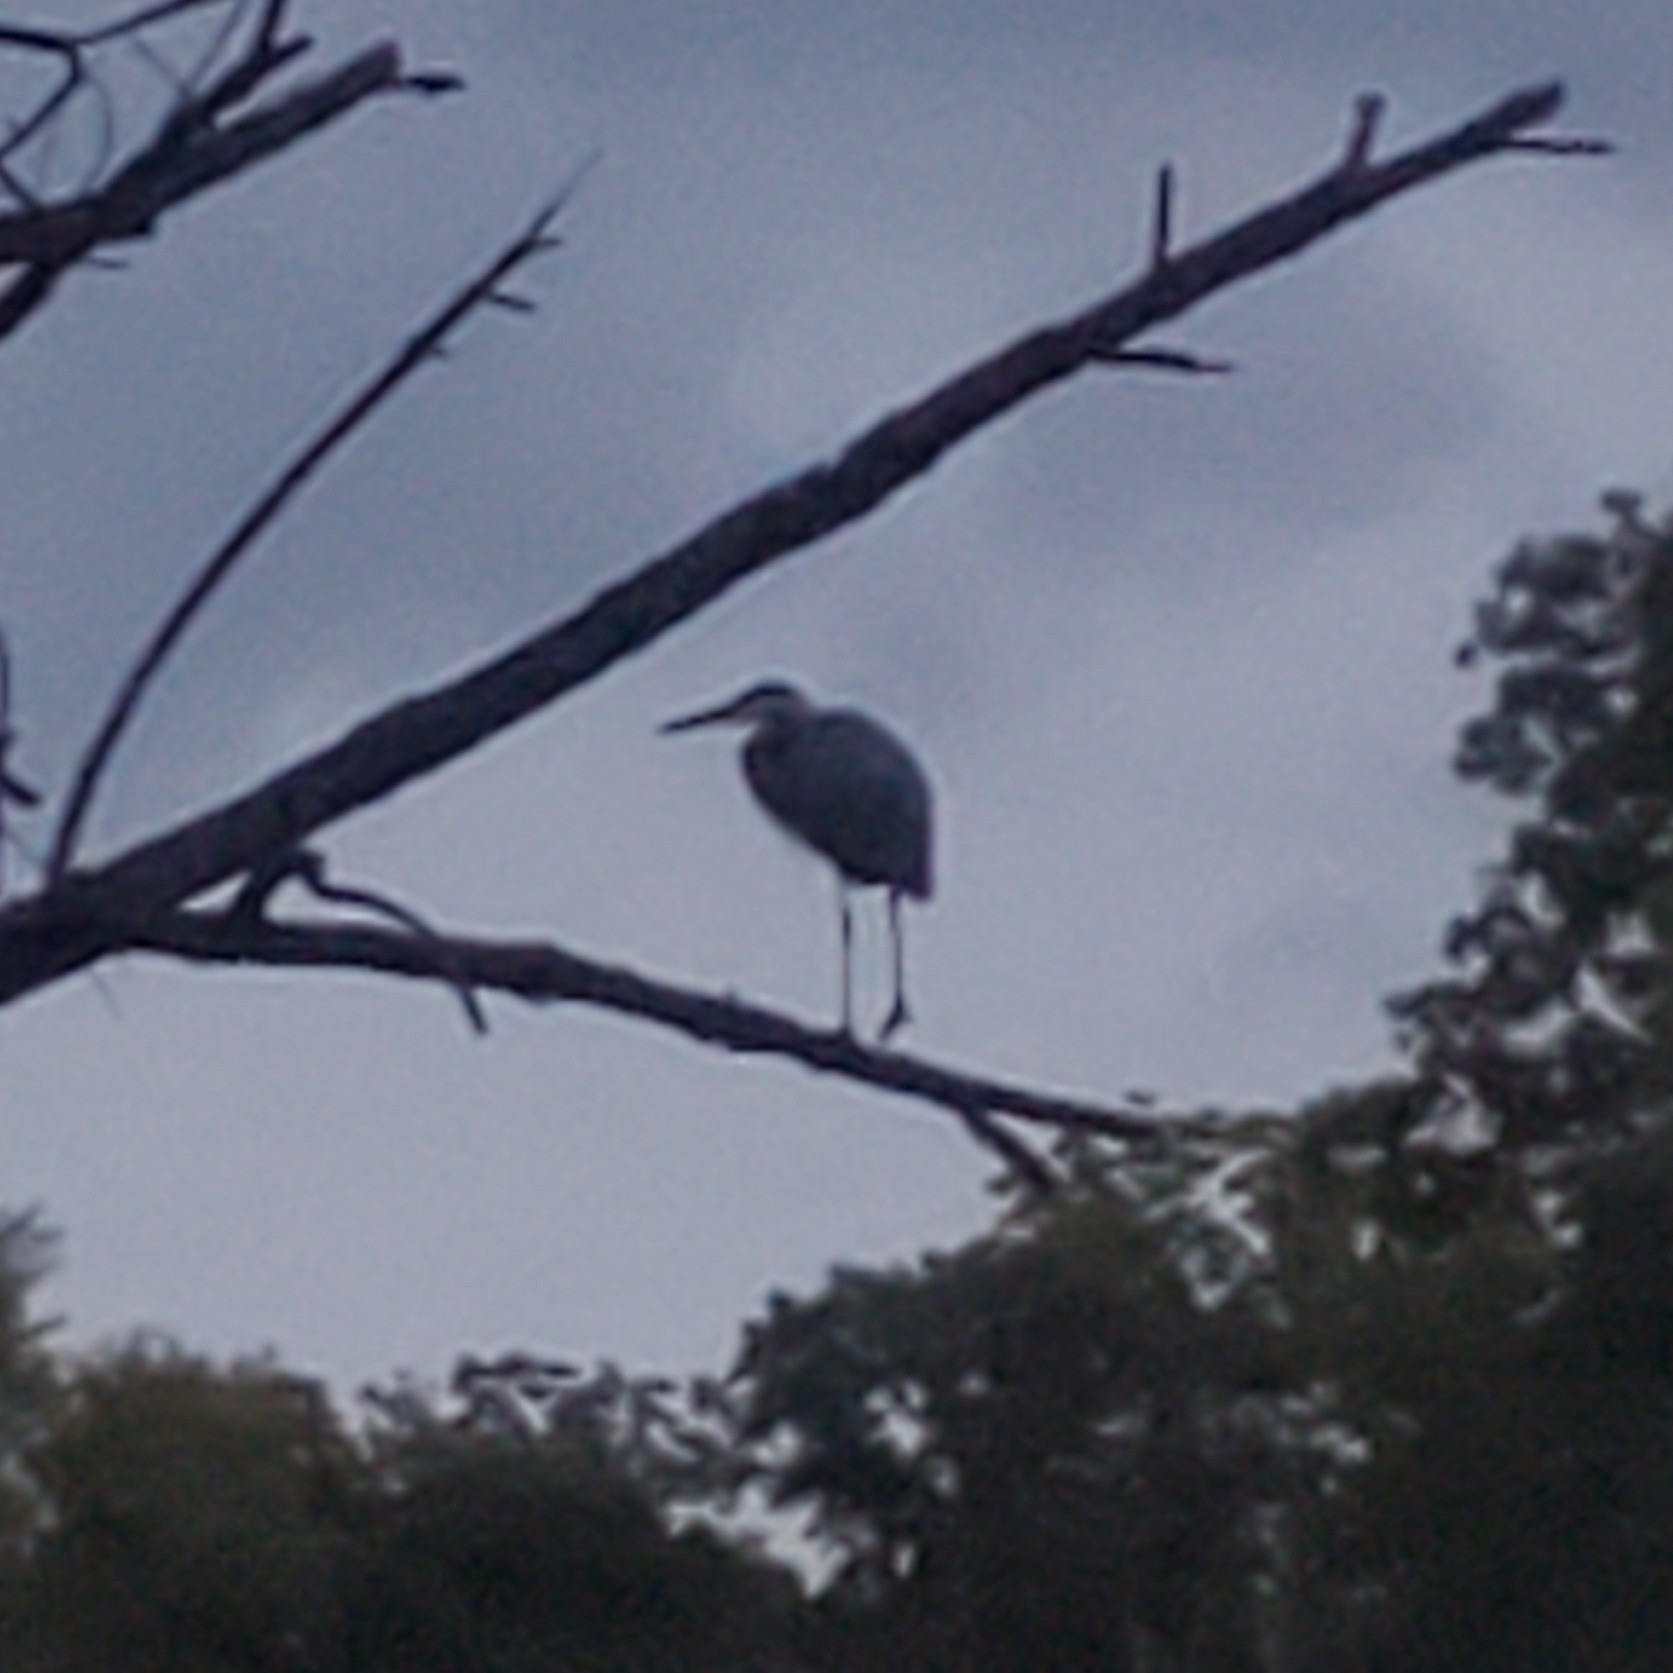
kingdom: Animalia
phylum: Chordata
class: Aves
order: Pelecaniformes
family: Ardeidae
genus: Ardea
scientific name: Ardea herodias
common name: Great blue heron
